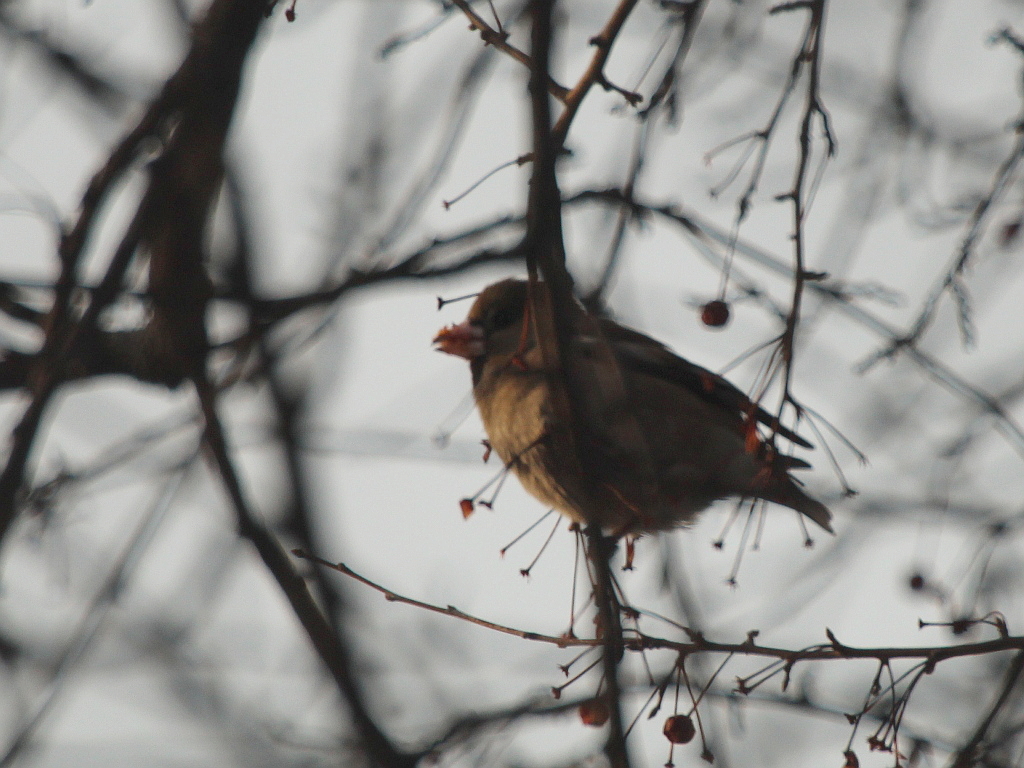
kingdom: Animalia
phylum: Chordata
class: Aves
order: Passeriformes
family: Fringillidae
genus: Coccothraustes
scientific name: Coccothraustes coccothraustes
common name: Hawfinch
